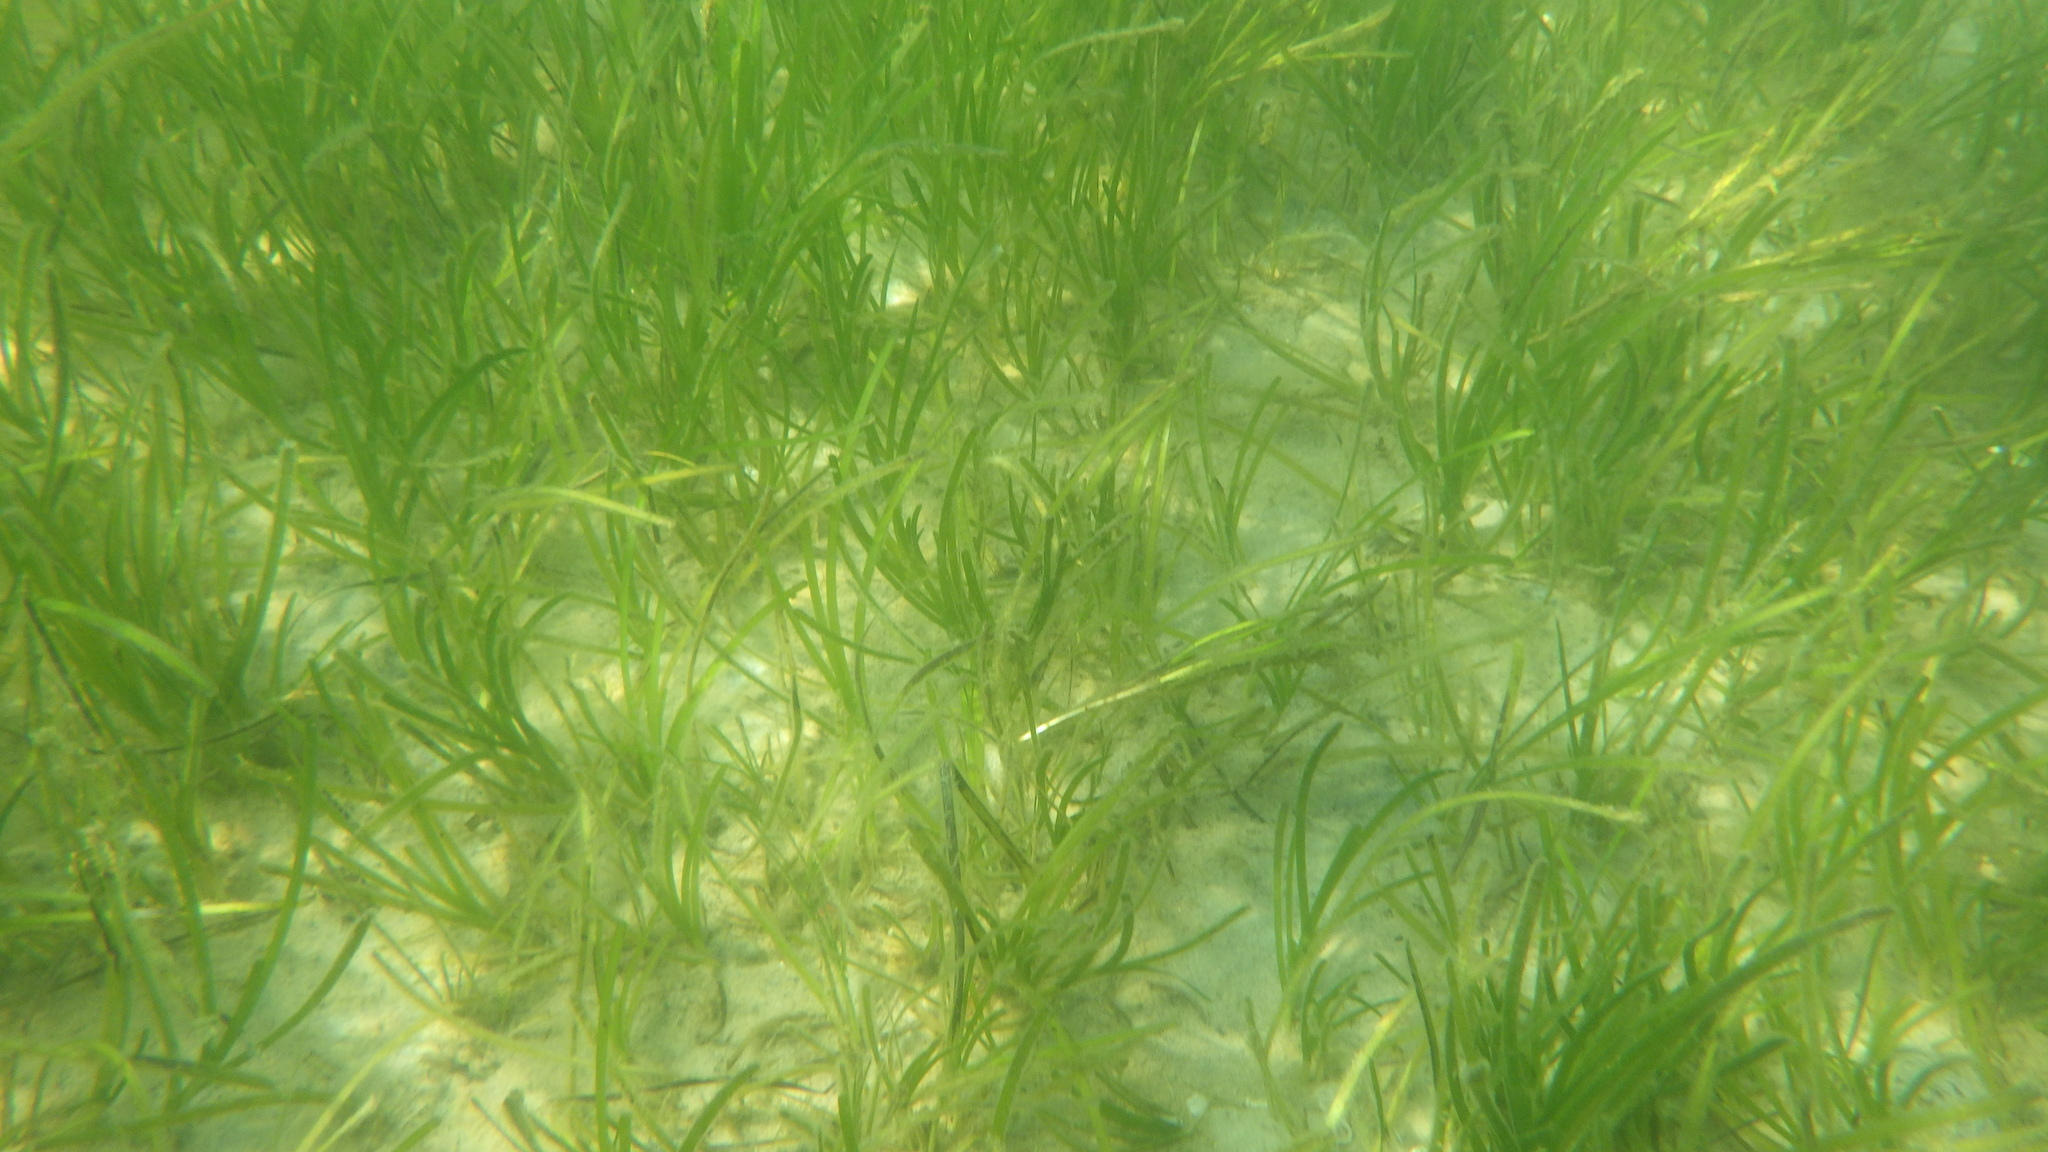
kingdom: Plantae
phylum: Tracheophyta
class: Liliopsida
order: Alismatales
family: Zosteraceae
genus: Zostera
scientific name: Zostera marina
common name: Eelgrass
